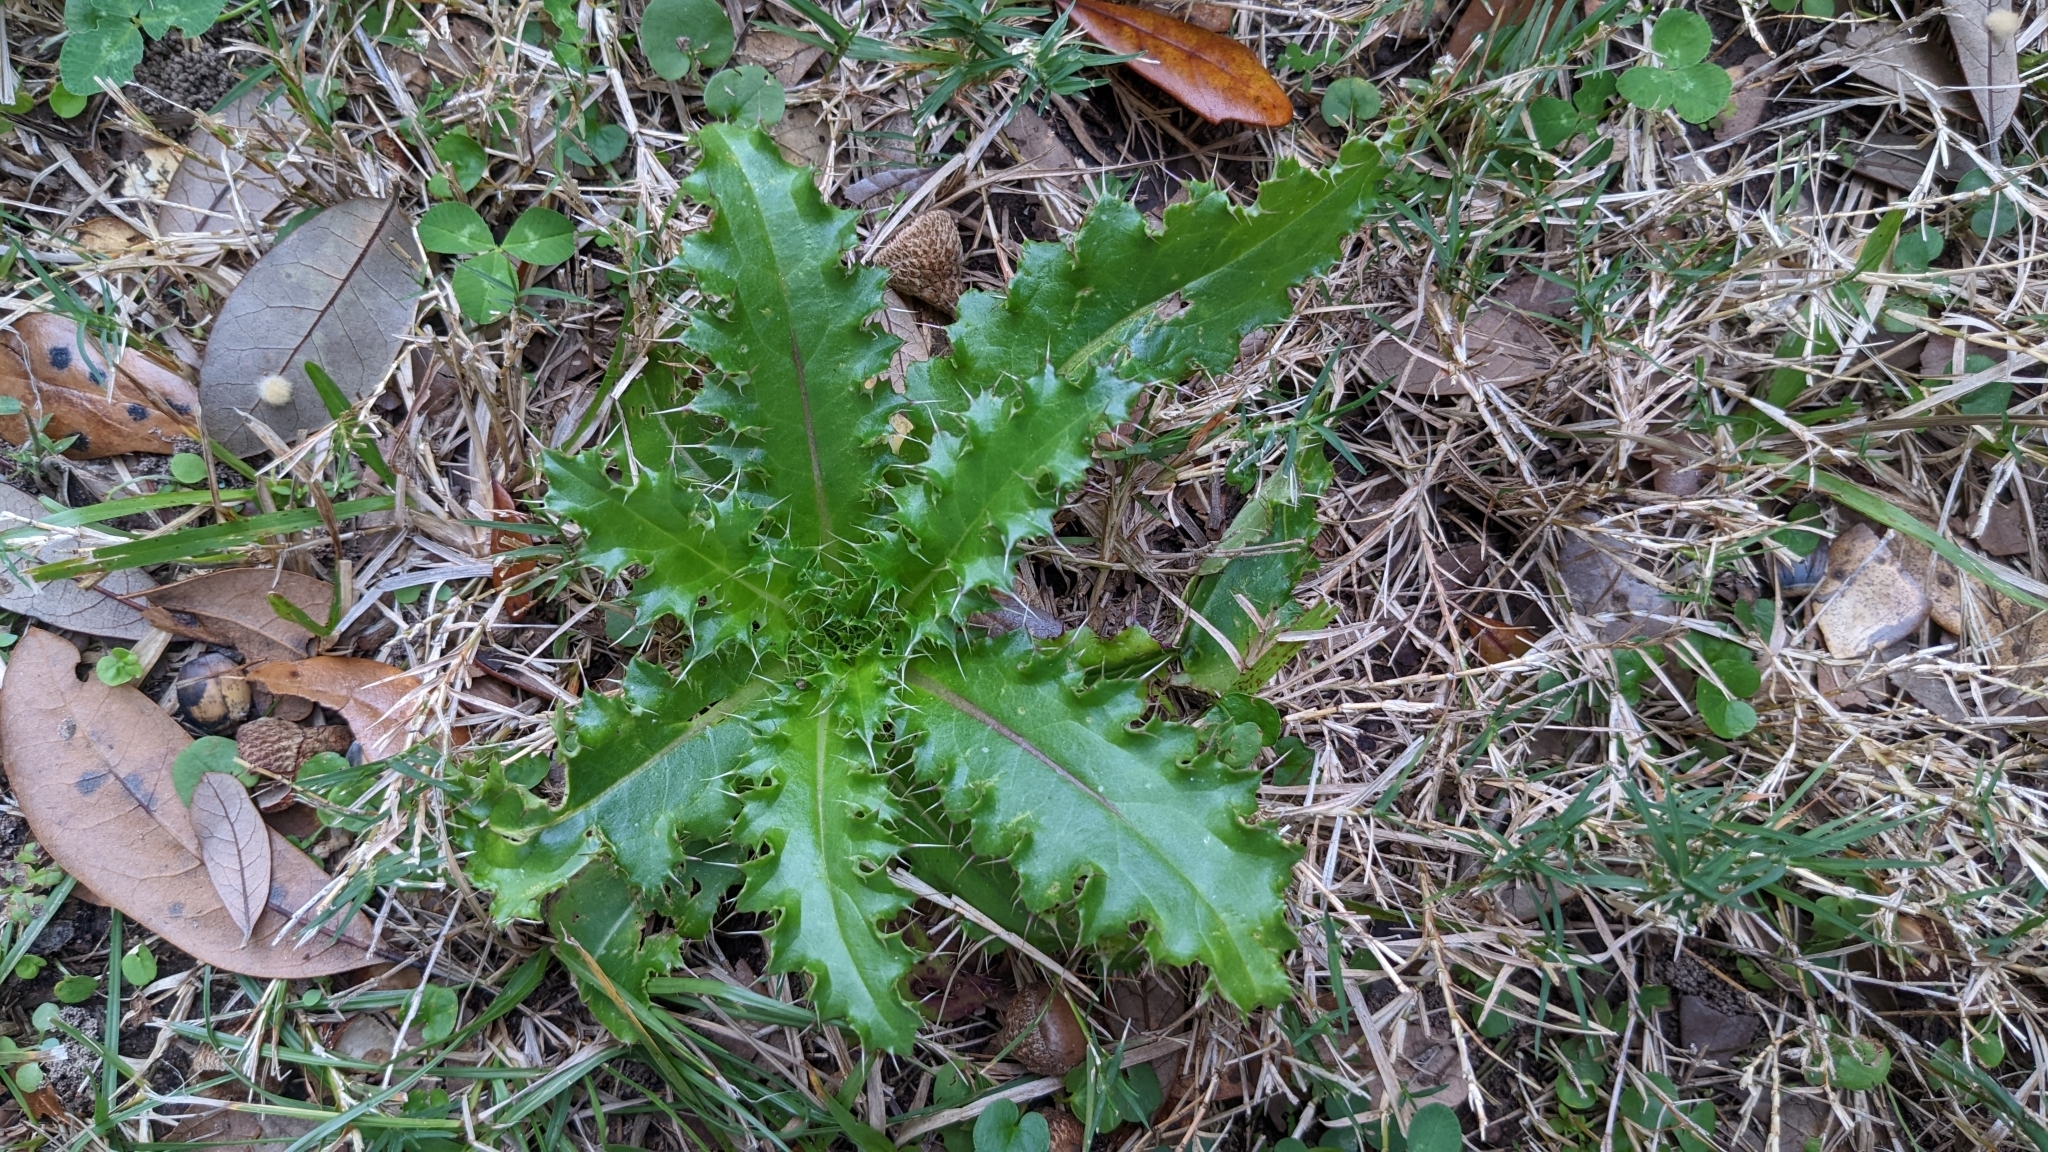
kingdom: Plantae
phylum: Tracheophyta
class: Magnoliopsida
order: Asterales
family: Asteraceae
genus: Cirsium
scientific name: Cirsium horridulum
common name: Bristly thistle
